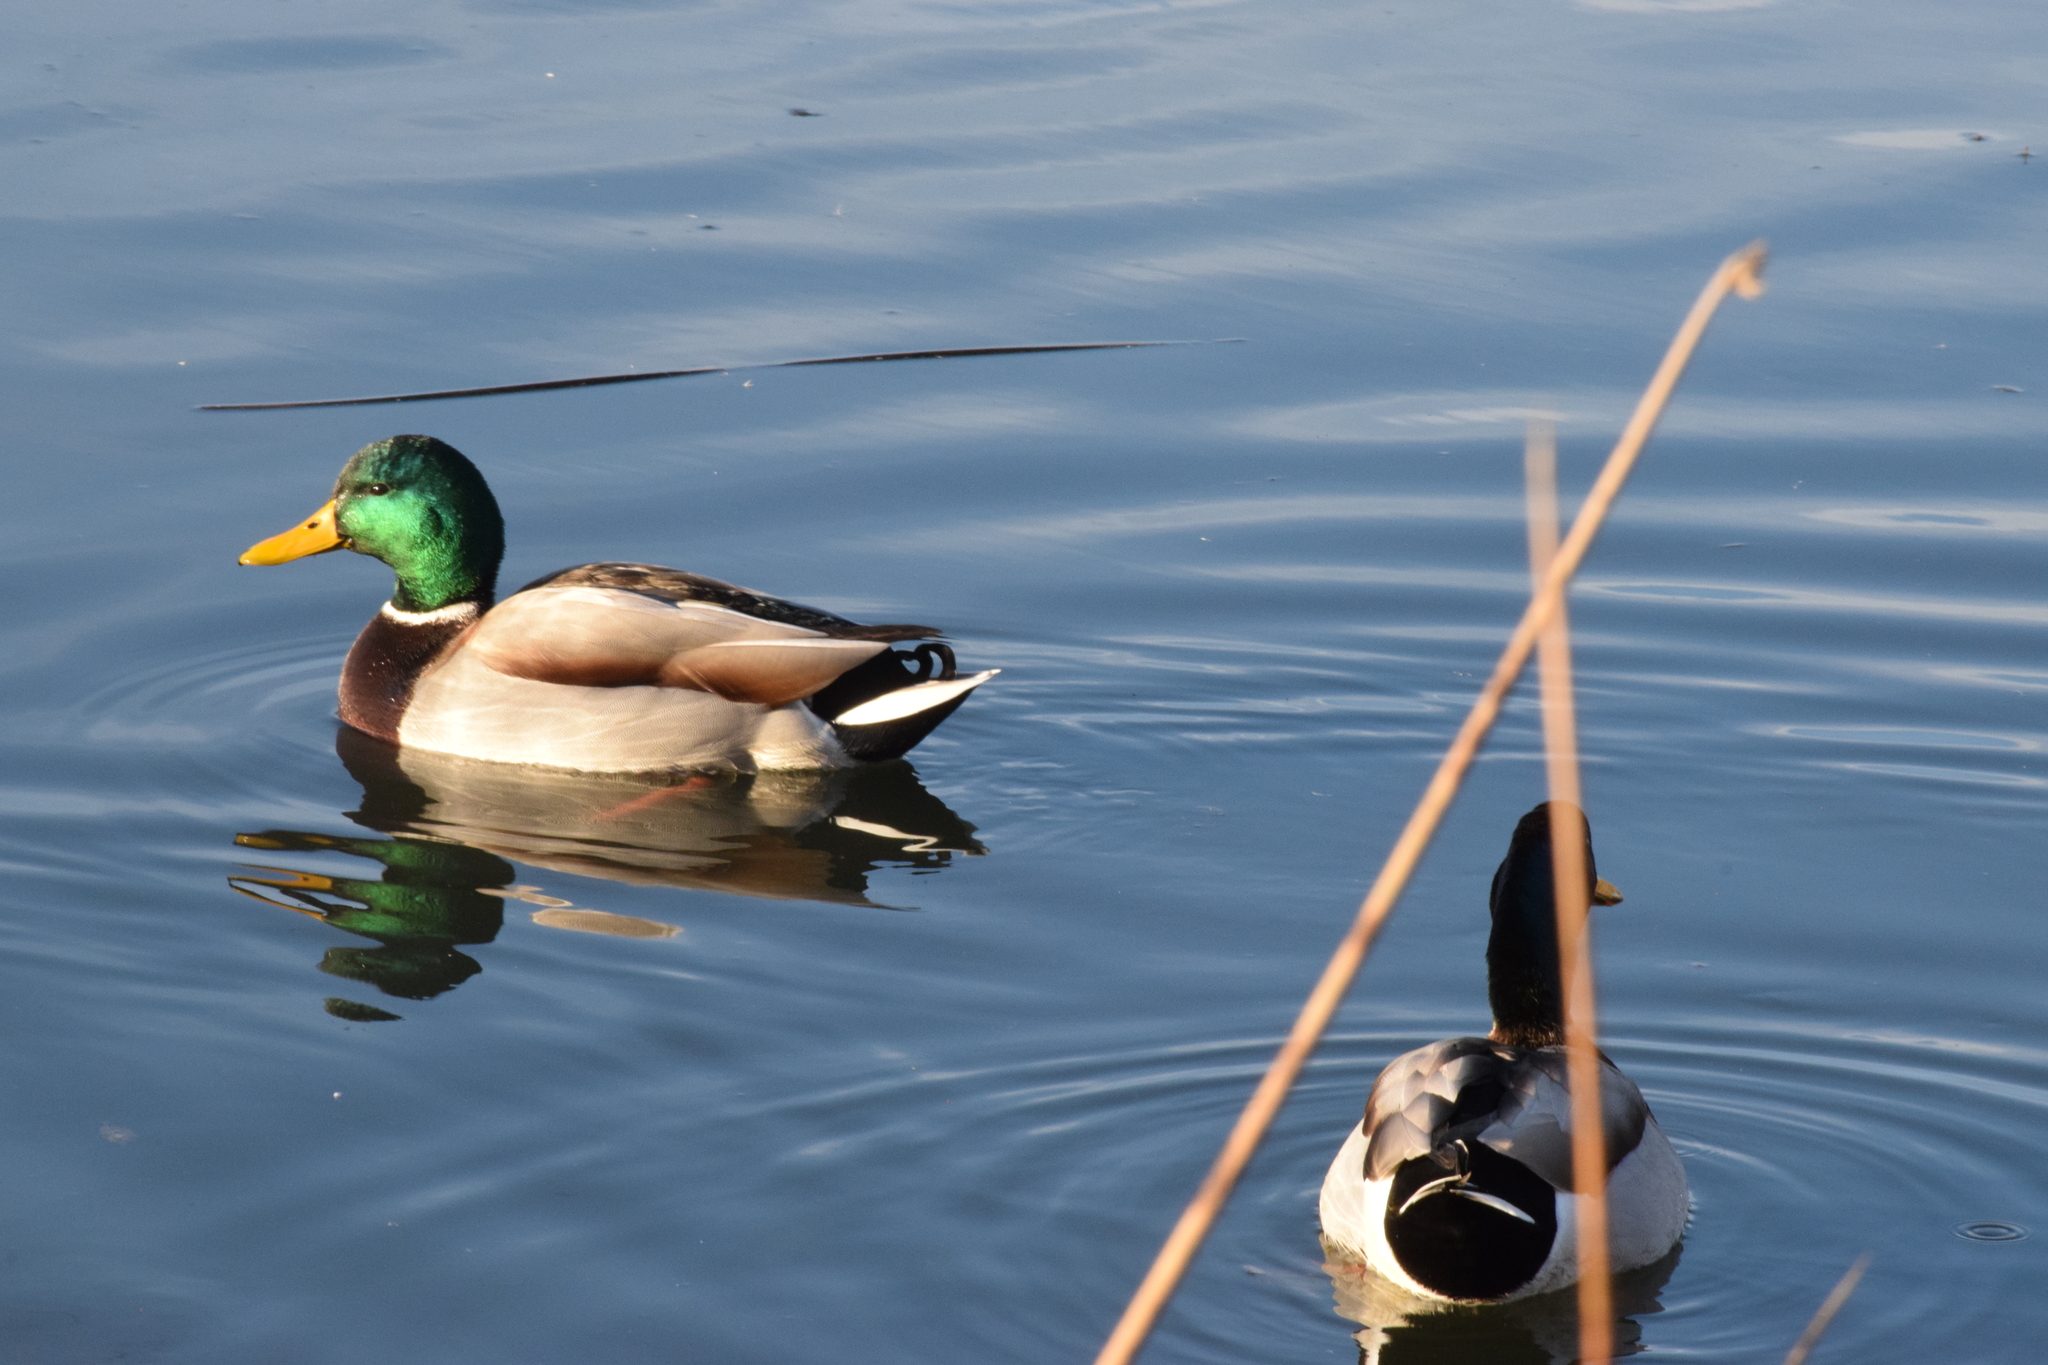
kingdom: Animalia
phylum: Chordata
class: Aves
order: Anseriformes
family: Anatidae
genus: Anas
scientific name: Anas platyrhynchos
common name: Mallard
